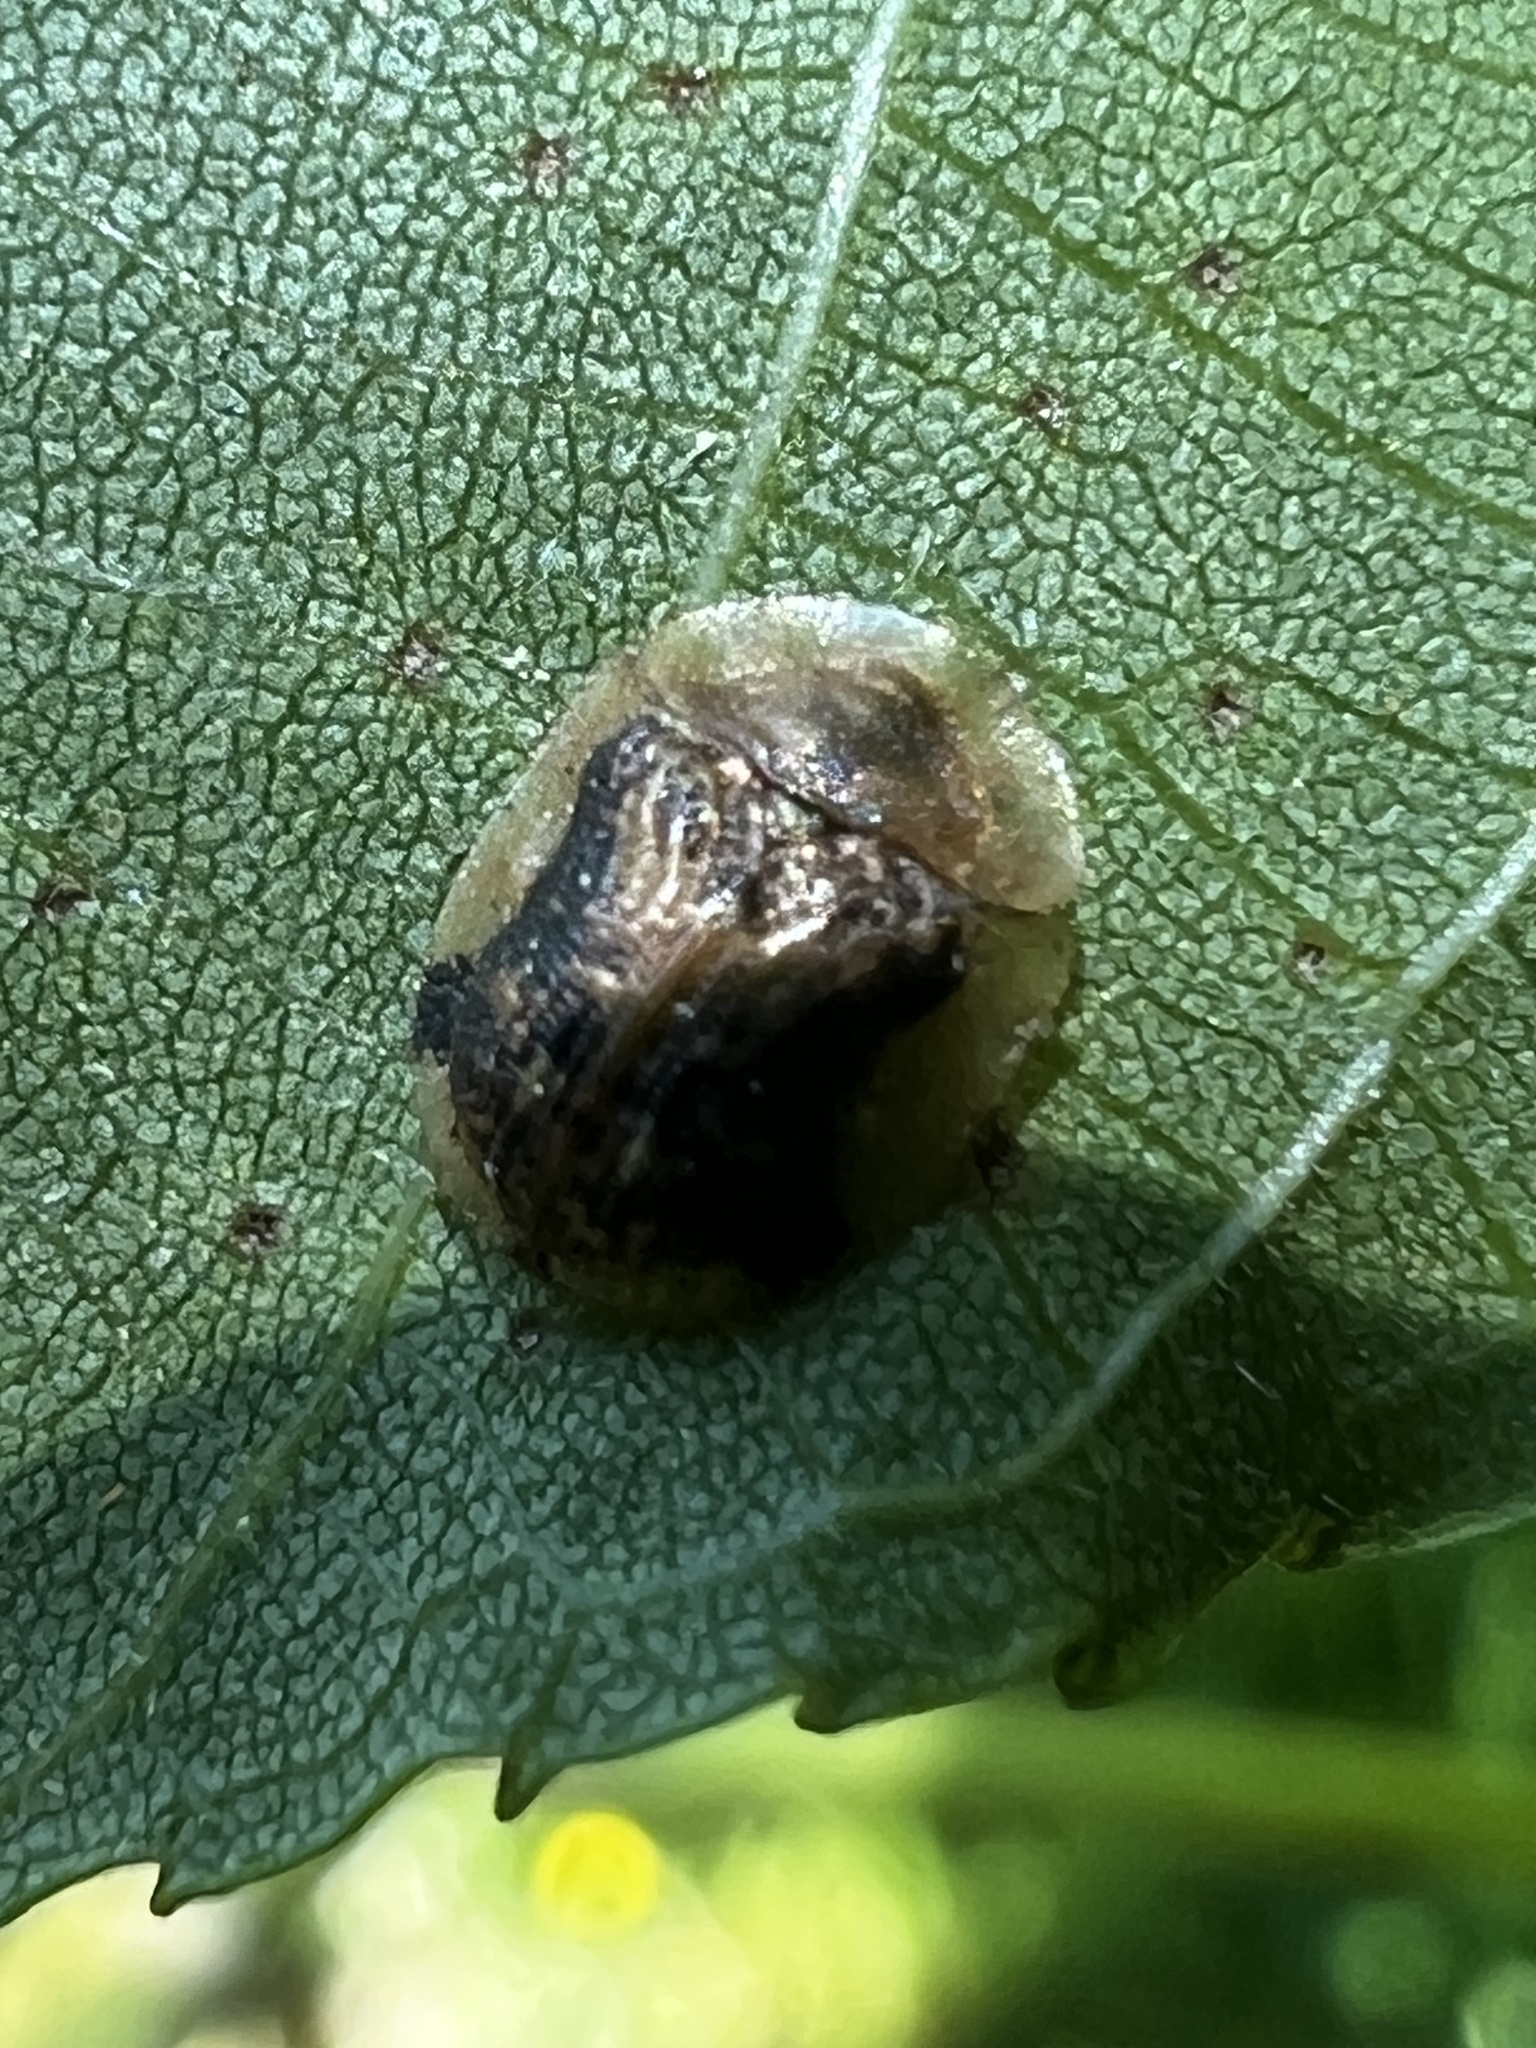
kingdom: Animalia
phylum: Arthropoda
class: Insecta
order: Coleoptera
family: Chrysomelidae
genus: Cassida
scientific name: Cassida piperata
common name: Small tortoise beetle
